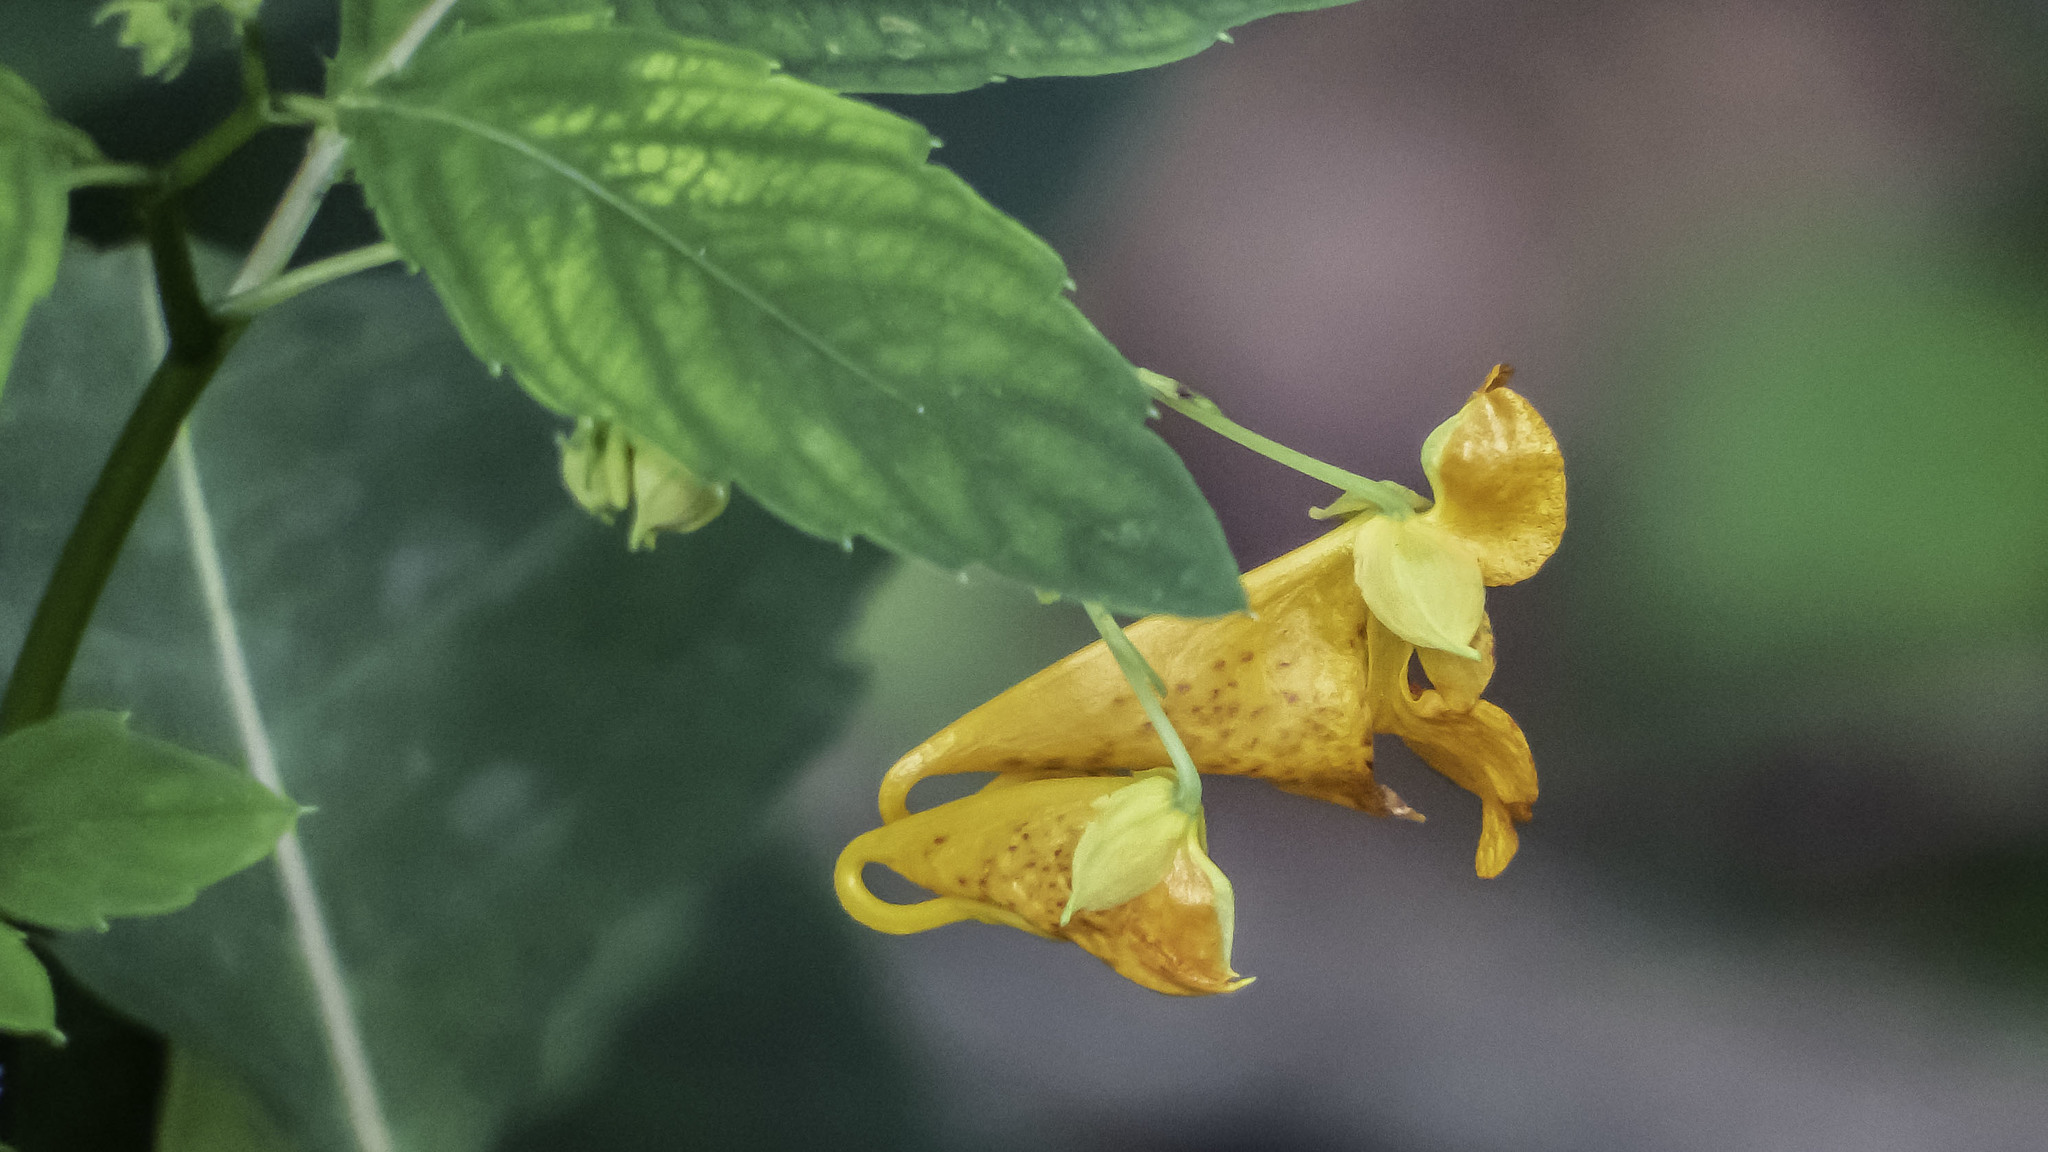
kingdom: Plantae
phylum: Tracheophyta
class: Magnoliopsida
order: Ericales
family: Balsaminaceae
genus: Impatiens
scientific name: Impatiens capensis
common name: Orange balsam
